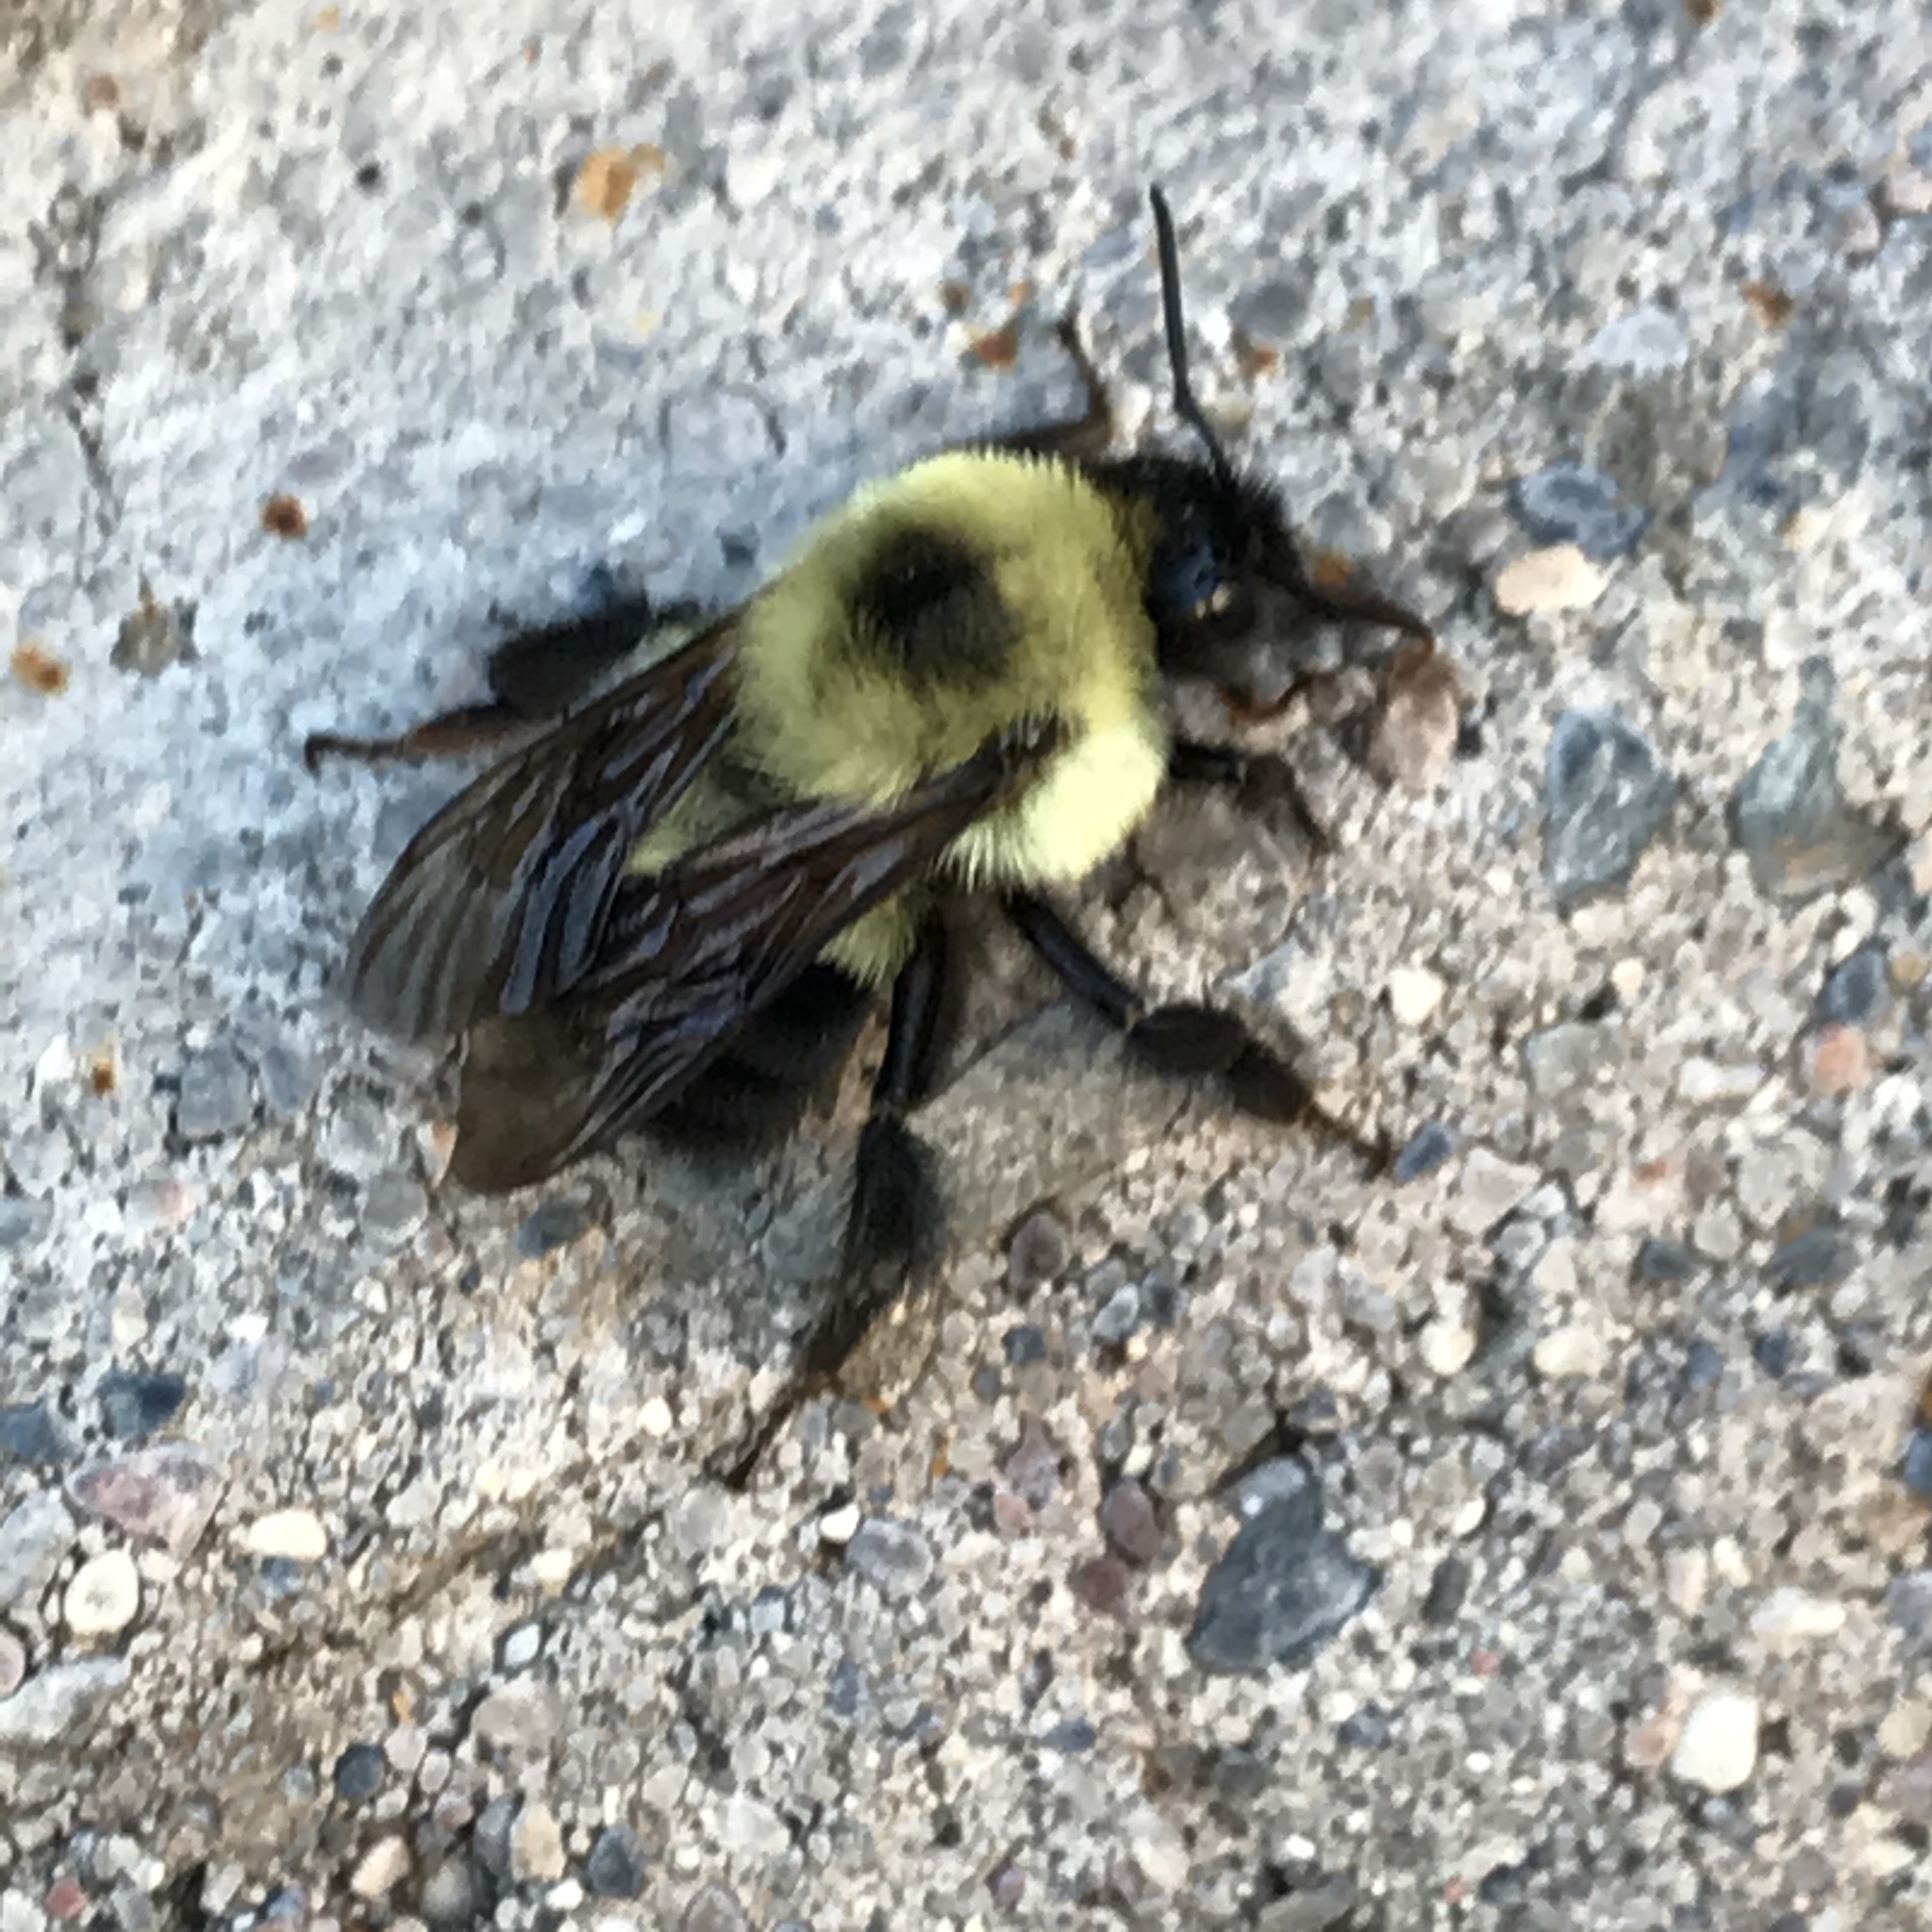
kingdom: Animalia
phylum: Arthropoda
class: Insecta
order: Hymenoptera
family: Apidae
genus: Bombus
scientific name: Bombus bimaculatus
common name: Two-spotted bumble bee
